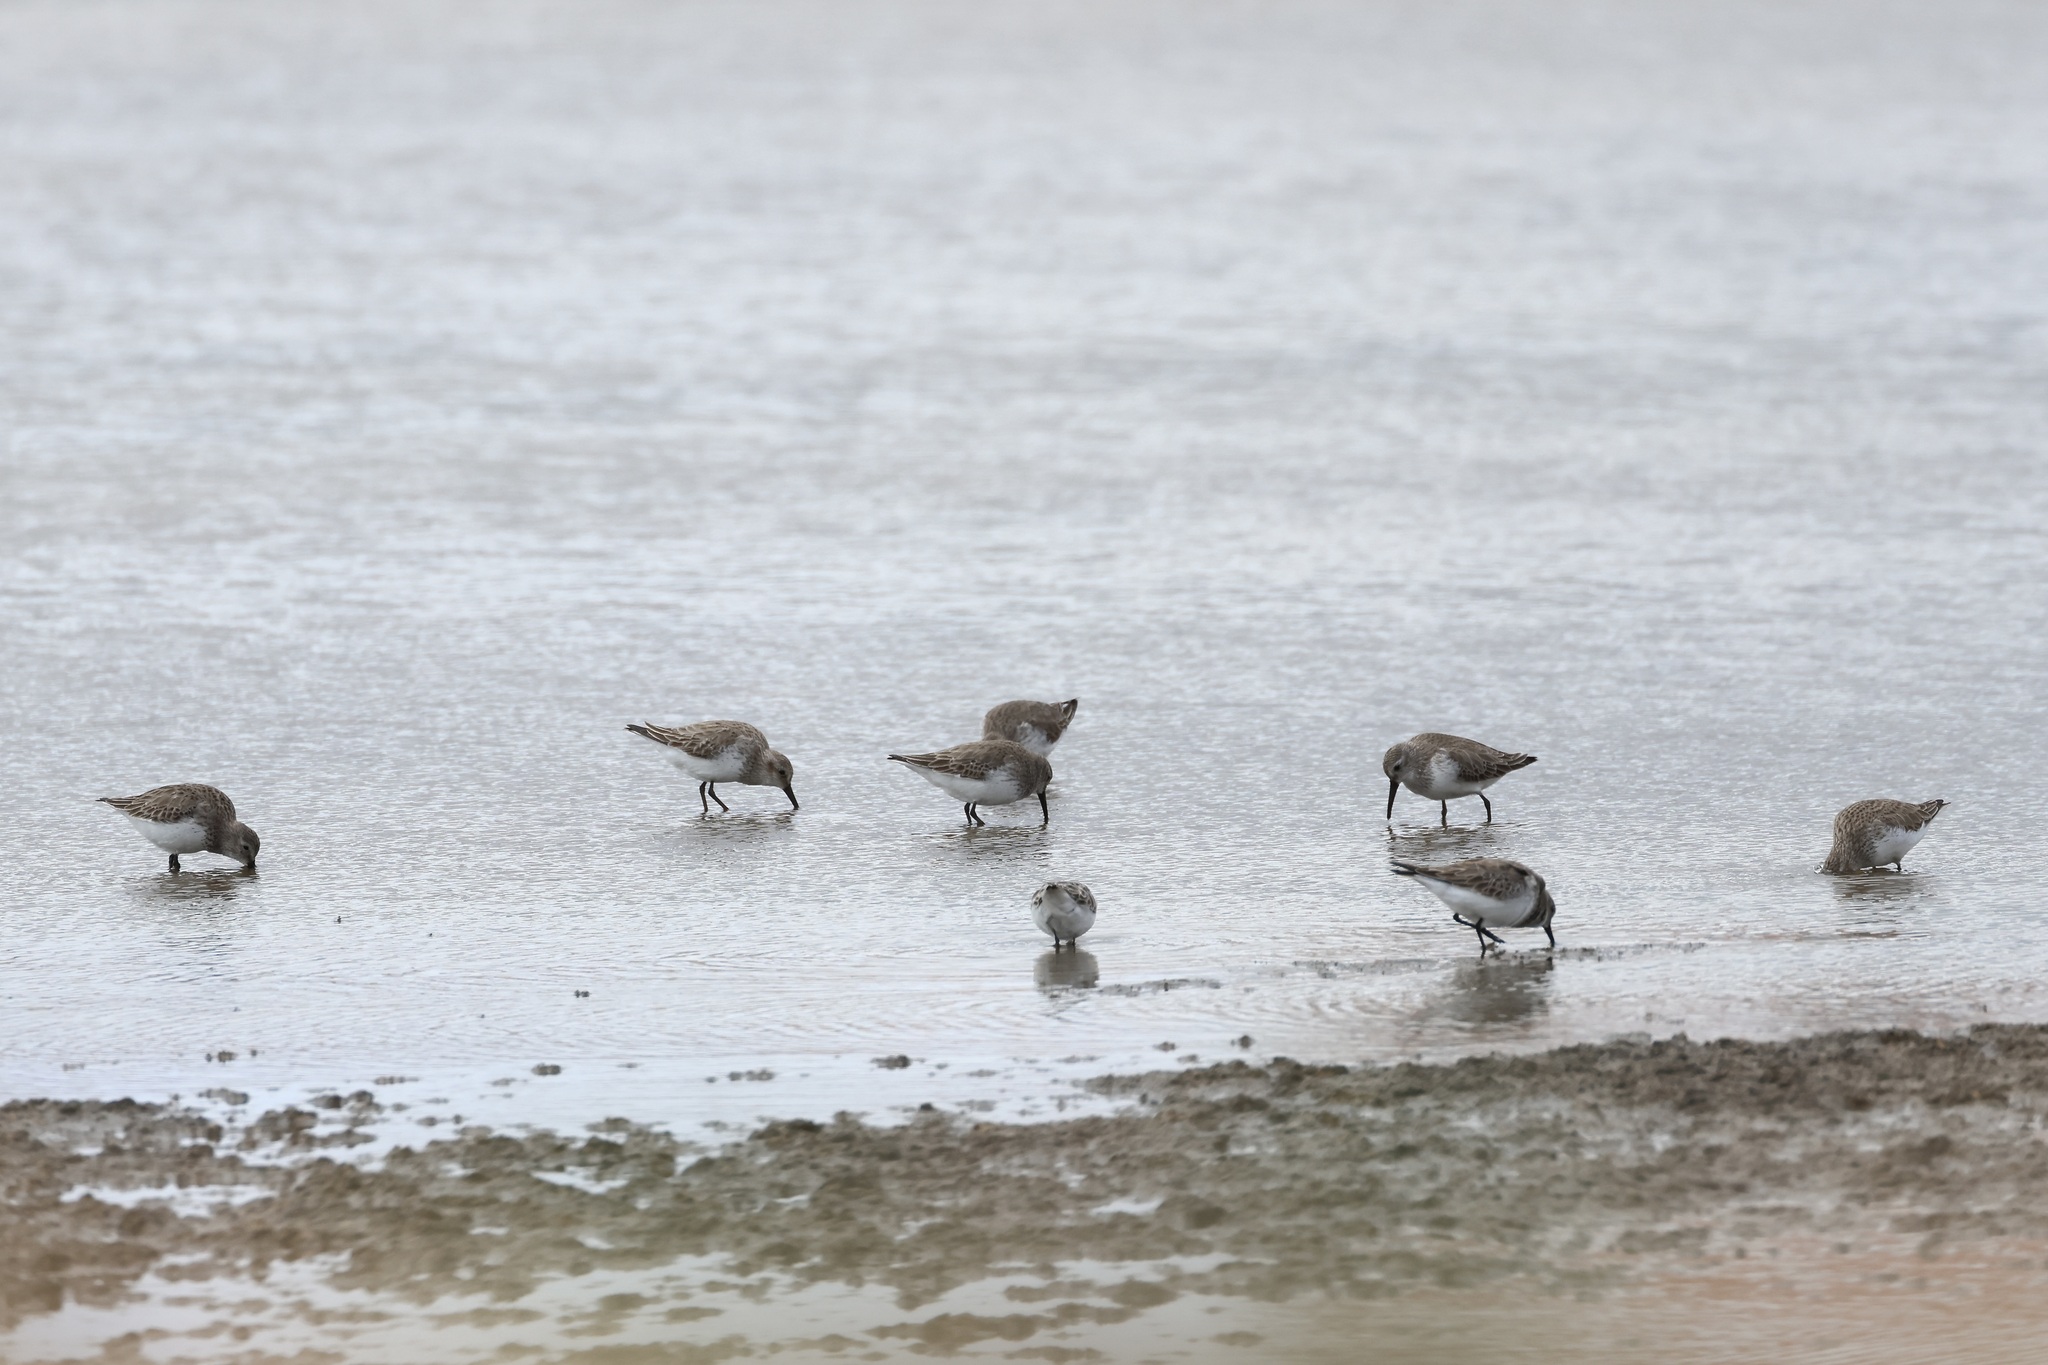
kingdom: Animalia
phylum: Chordata
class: Aves
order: Charadriiformes
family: Scolopacidae
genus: Calidris
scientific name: Calidris alpina
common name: Dunlin
